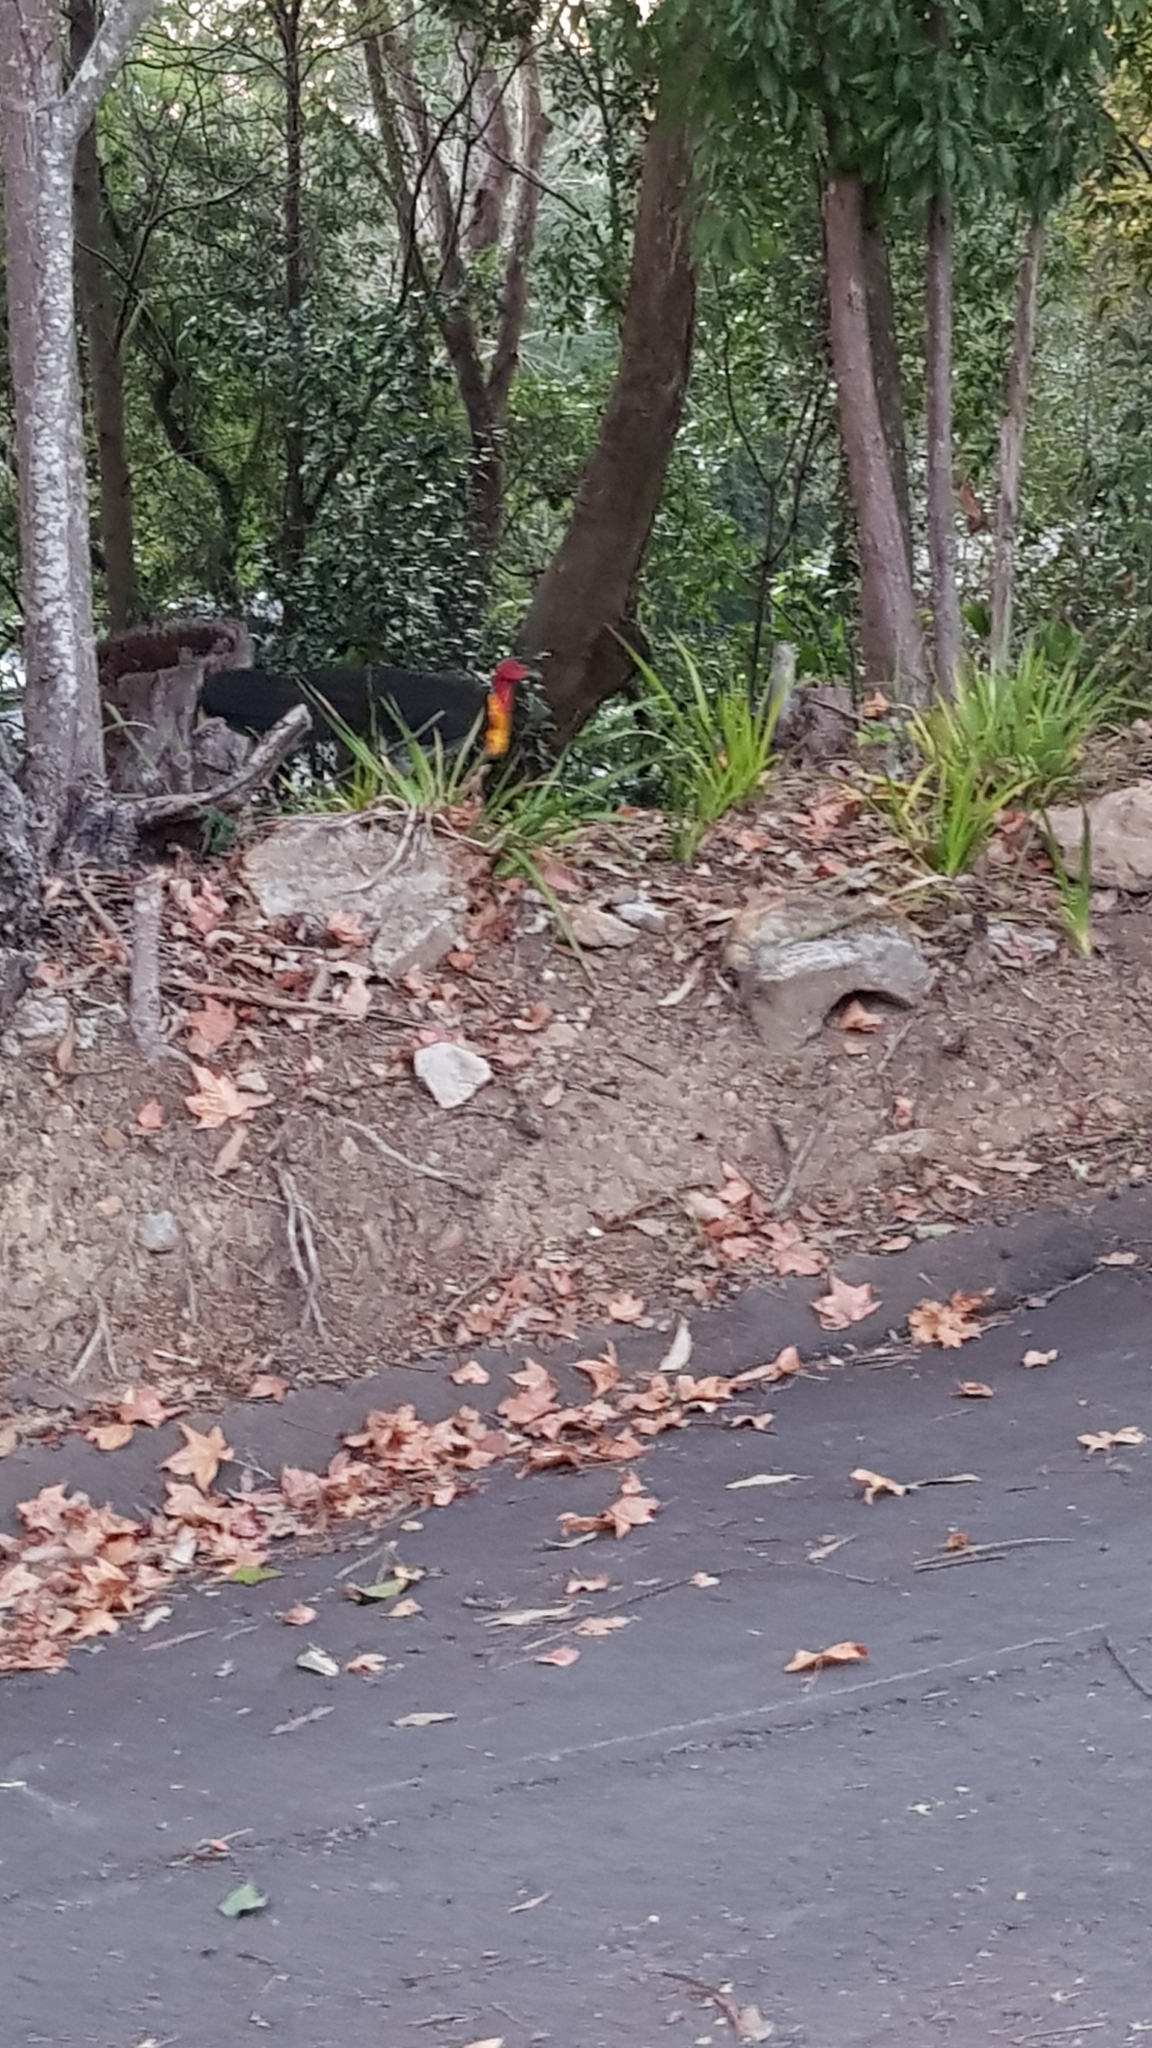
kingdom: Animalia
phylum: Chordata
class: Aves
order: Galliformes
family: Megapodiidae
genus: Alectura
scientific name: Alectura lathami
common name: Australian brushturkey
